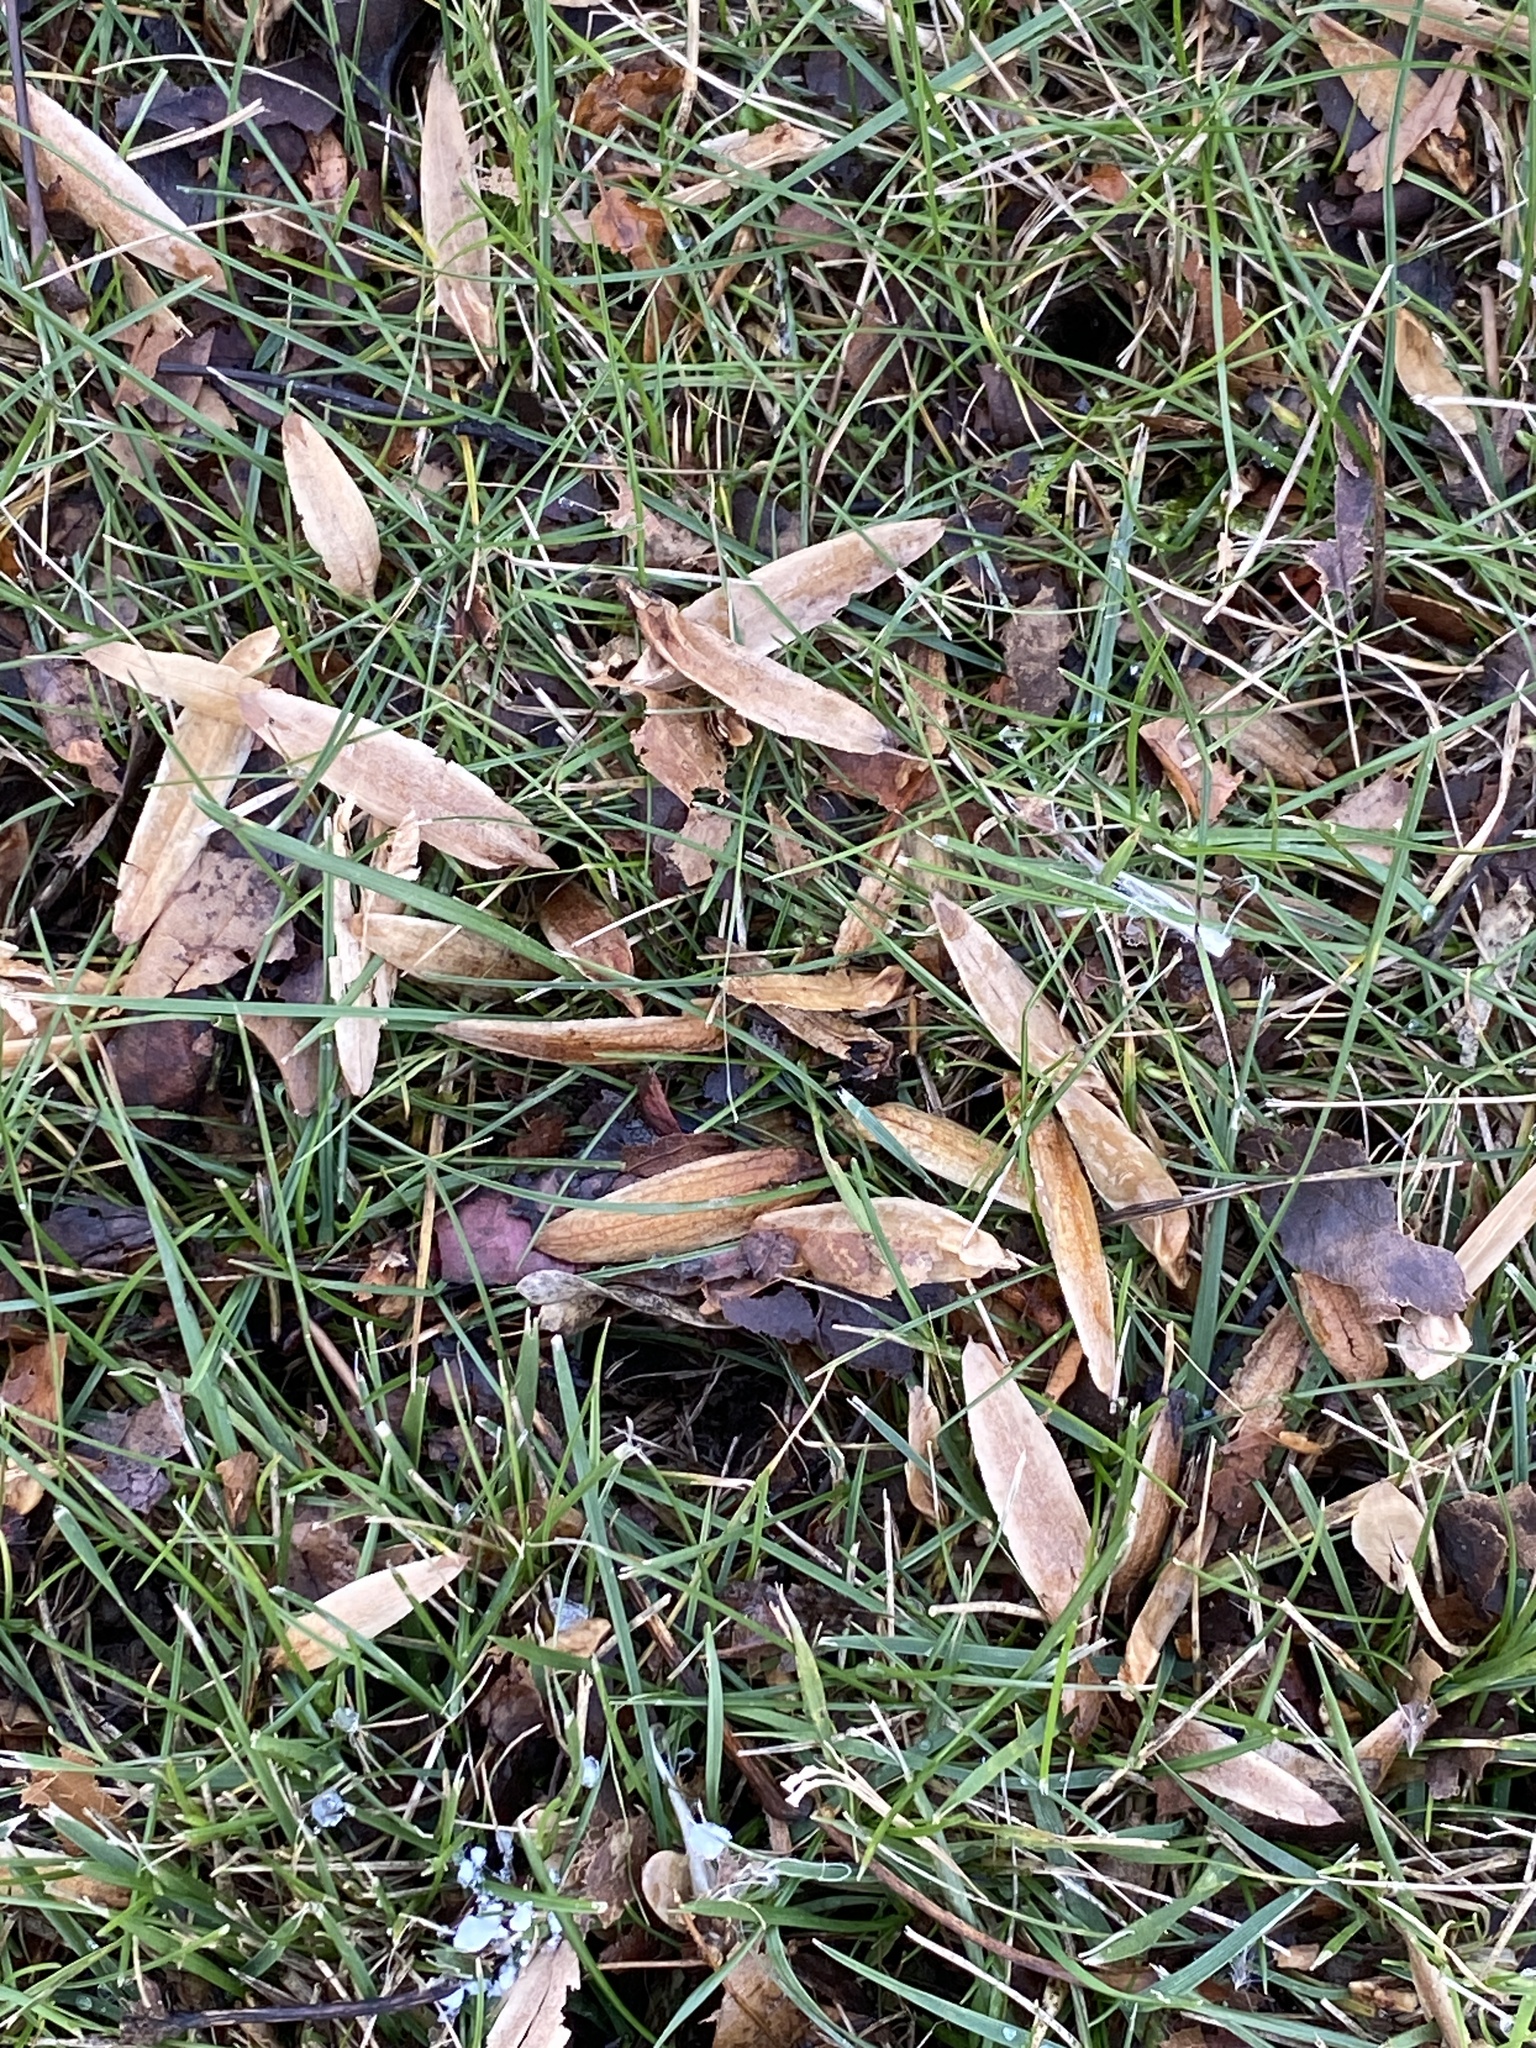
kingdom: Plantae
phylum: Tracheophyta
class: Magnoliopsida
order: Magnoliales
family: Magnoliaceae
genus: Liriodendron
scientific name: Liriodendron tulipifera
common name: Tulip tree
